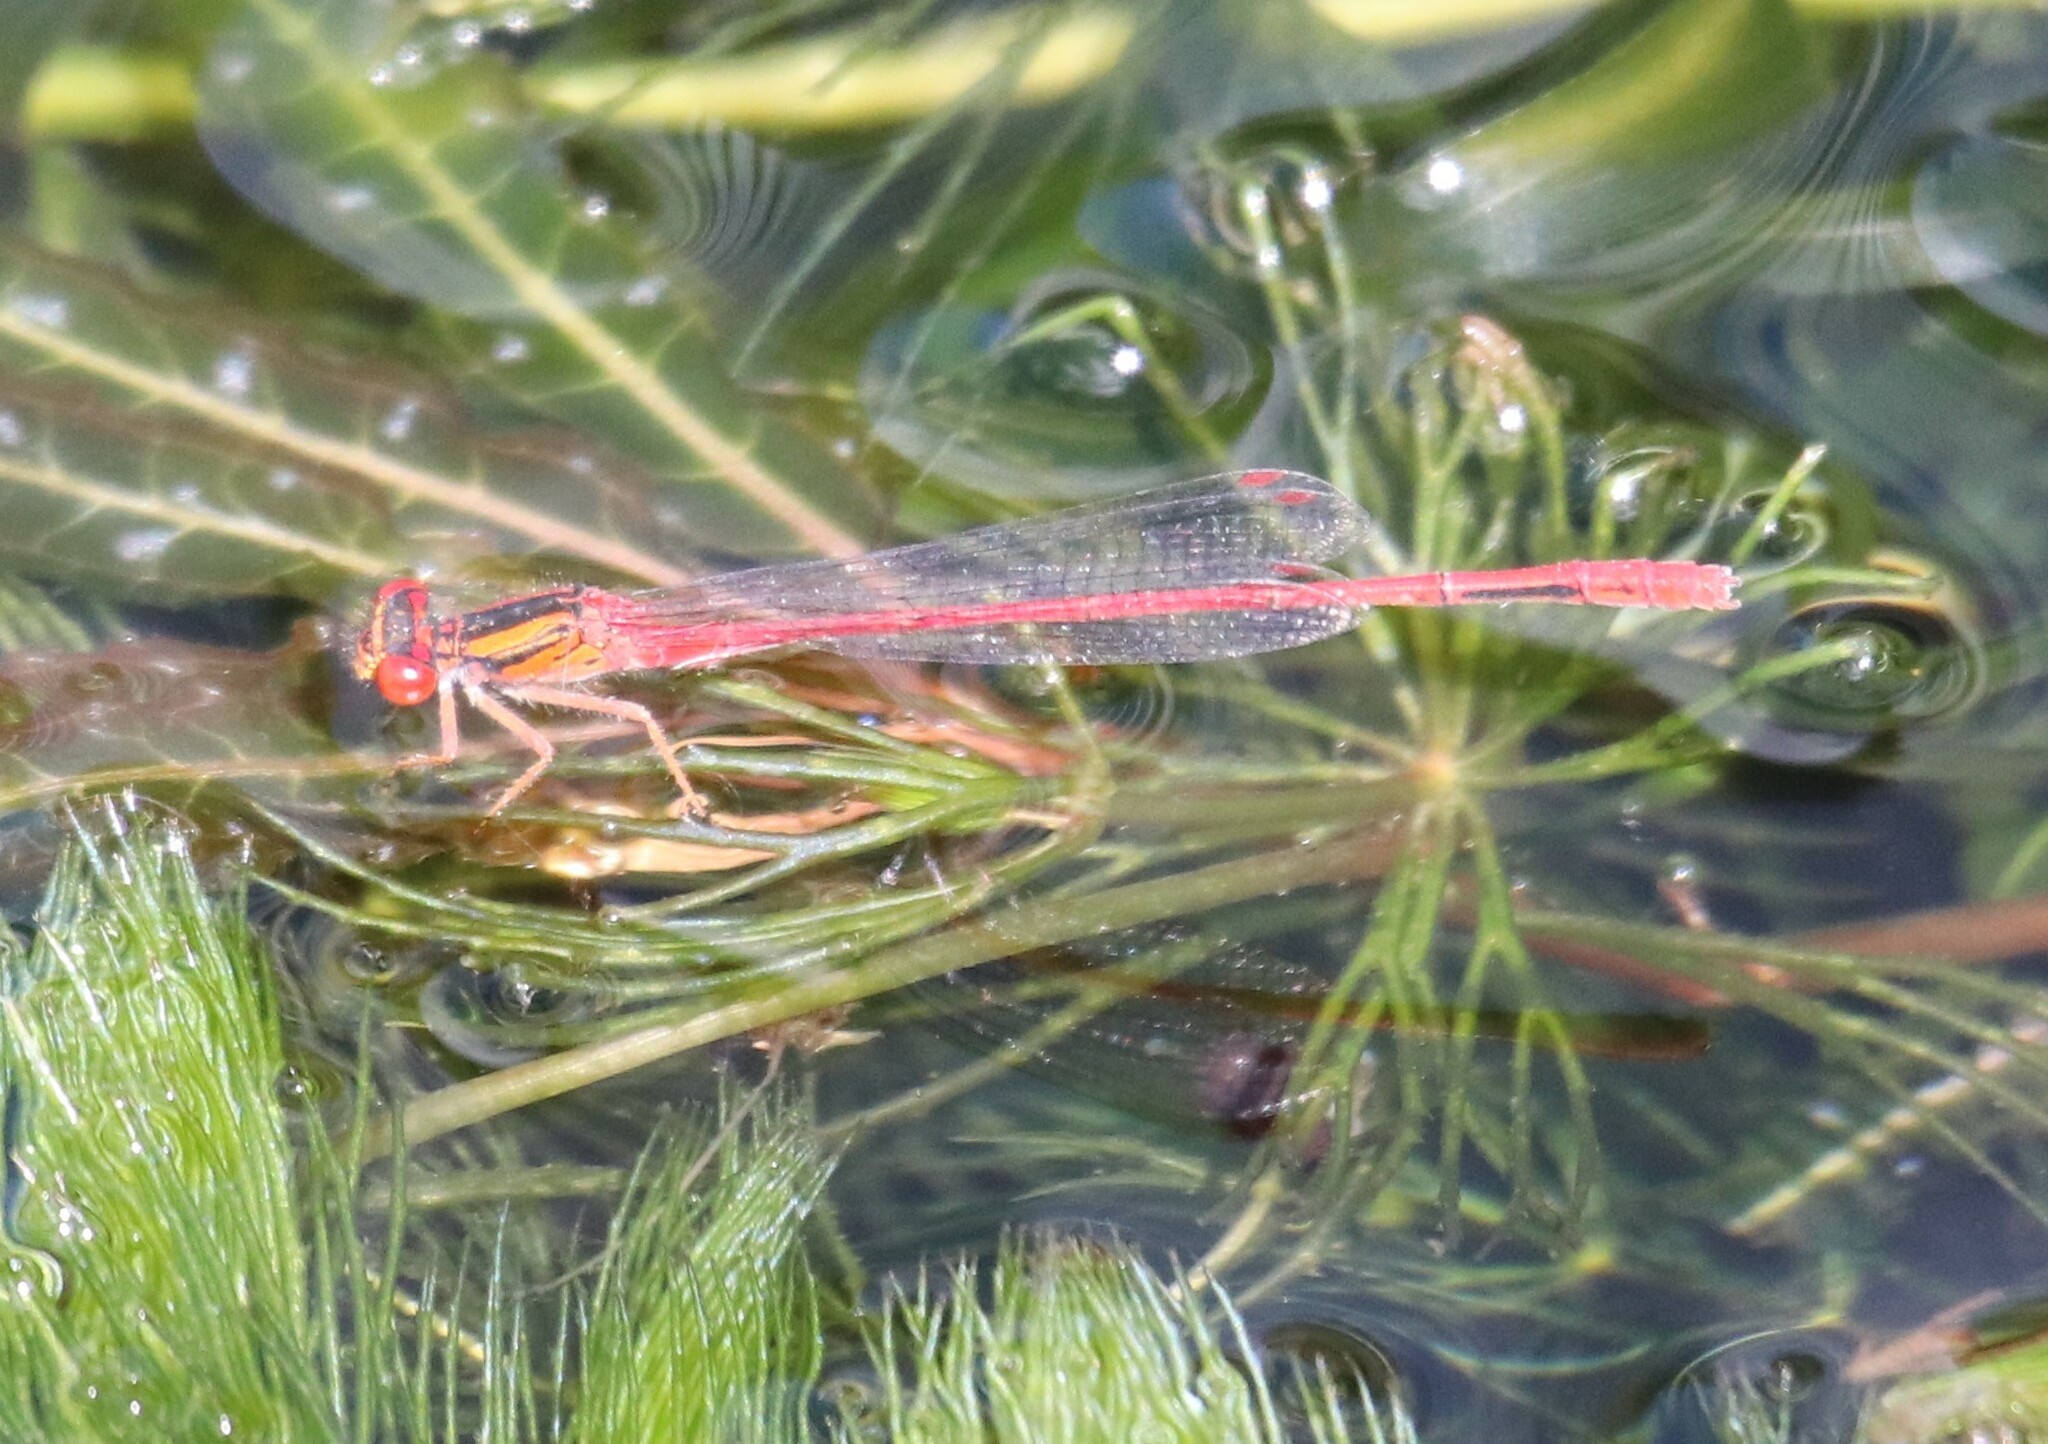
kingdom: Animalia
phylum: Arthropoda
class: Insecta
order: Odonata
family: Coenagrionidae
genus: Xanthocnemis
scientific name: Xanthocnemis zealandica
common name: Common redcoat damselfly
